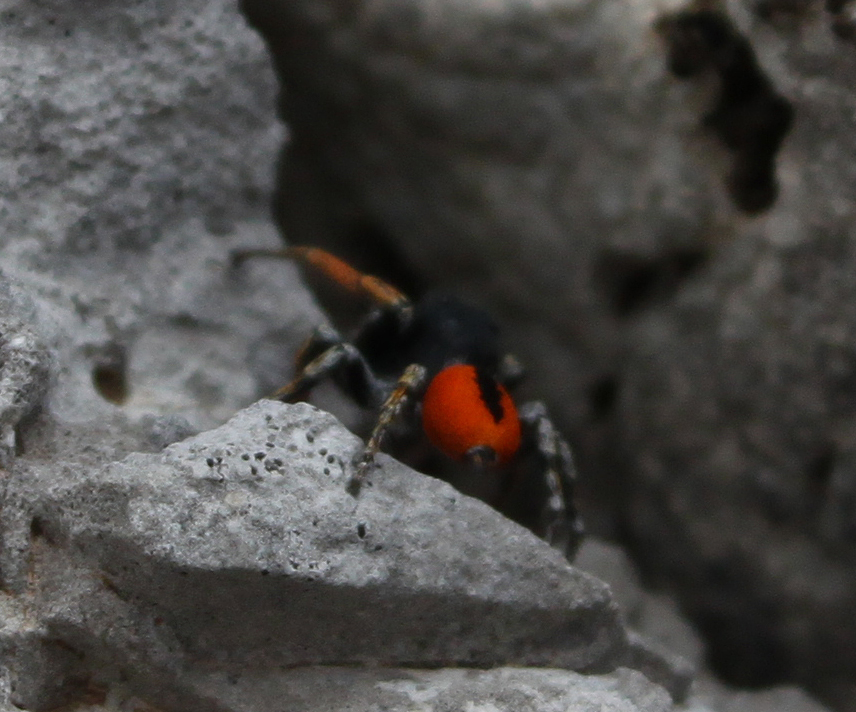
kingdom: Animalia
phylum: Arthropoda
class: Arachnida
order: Araneae
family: Salticidae
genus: Philaeus
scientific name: Philaeus chrysops
